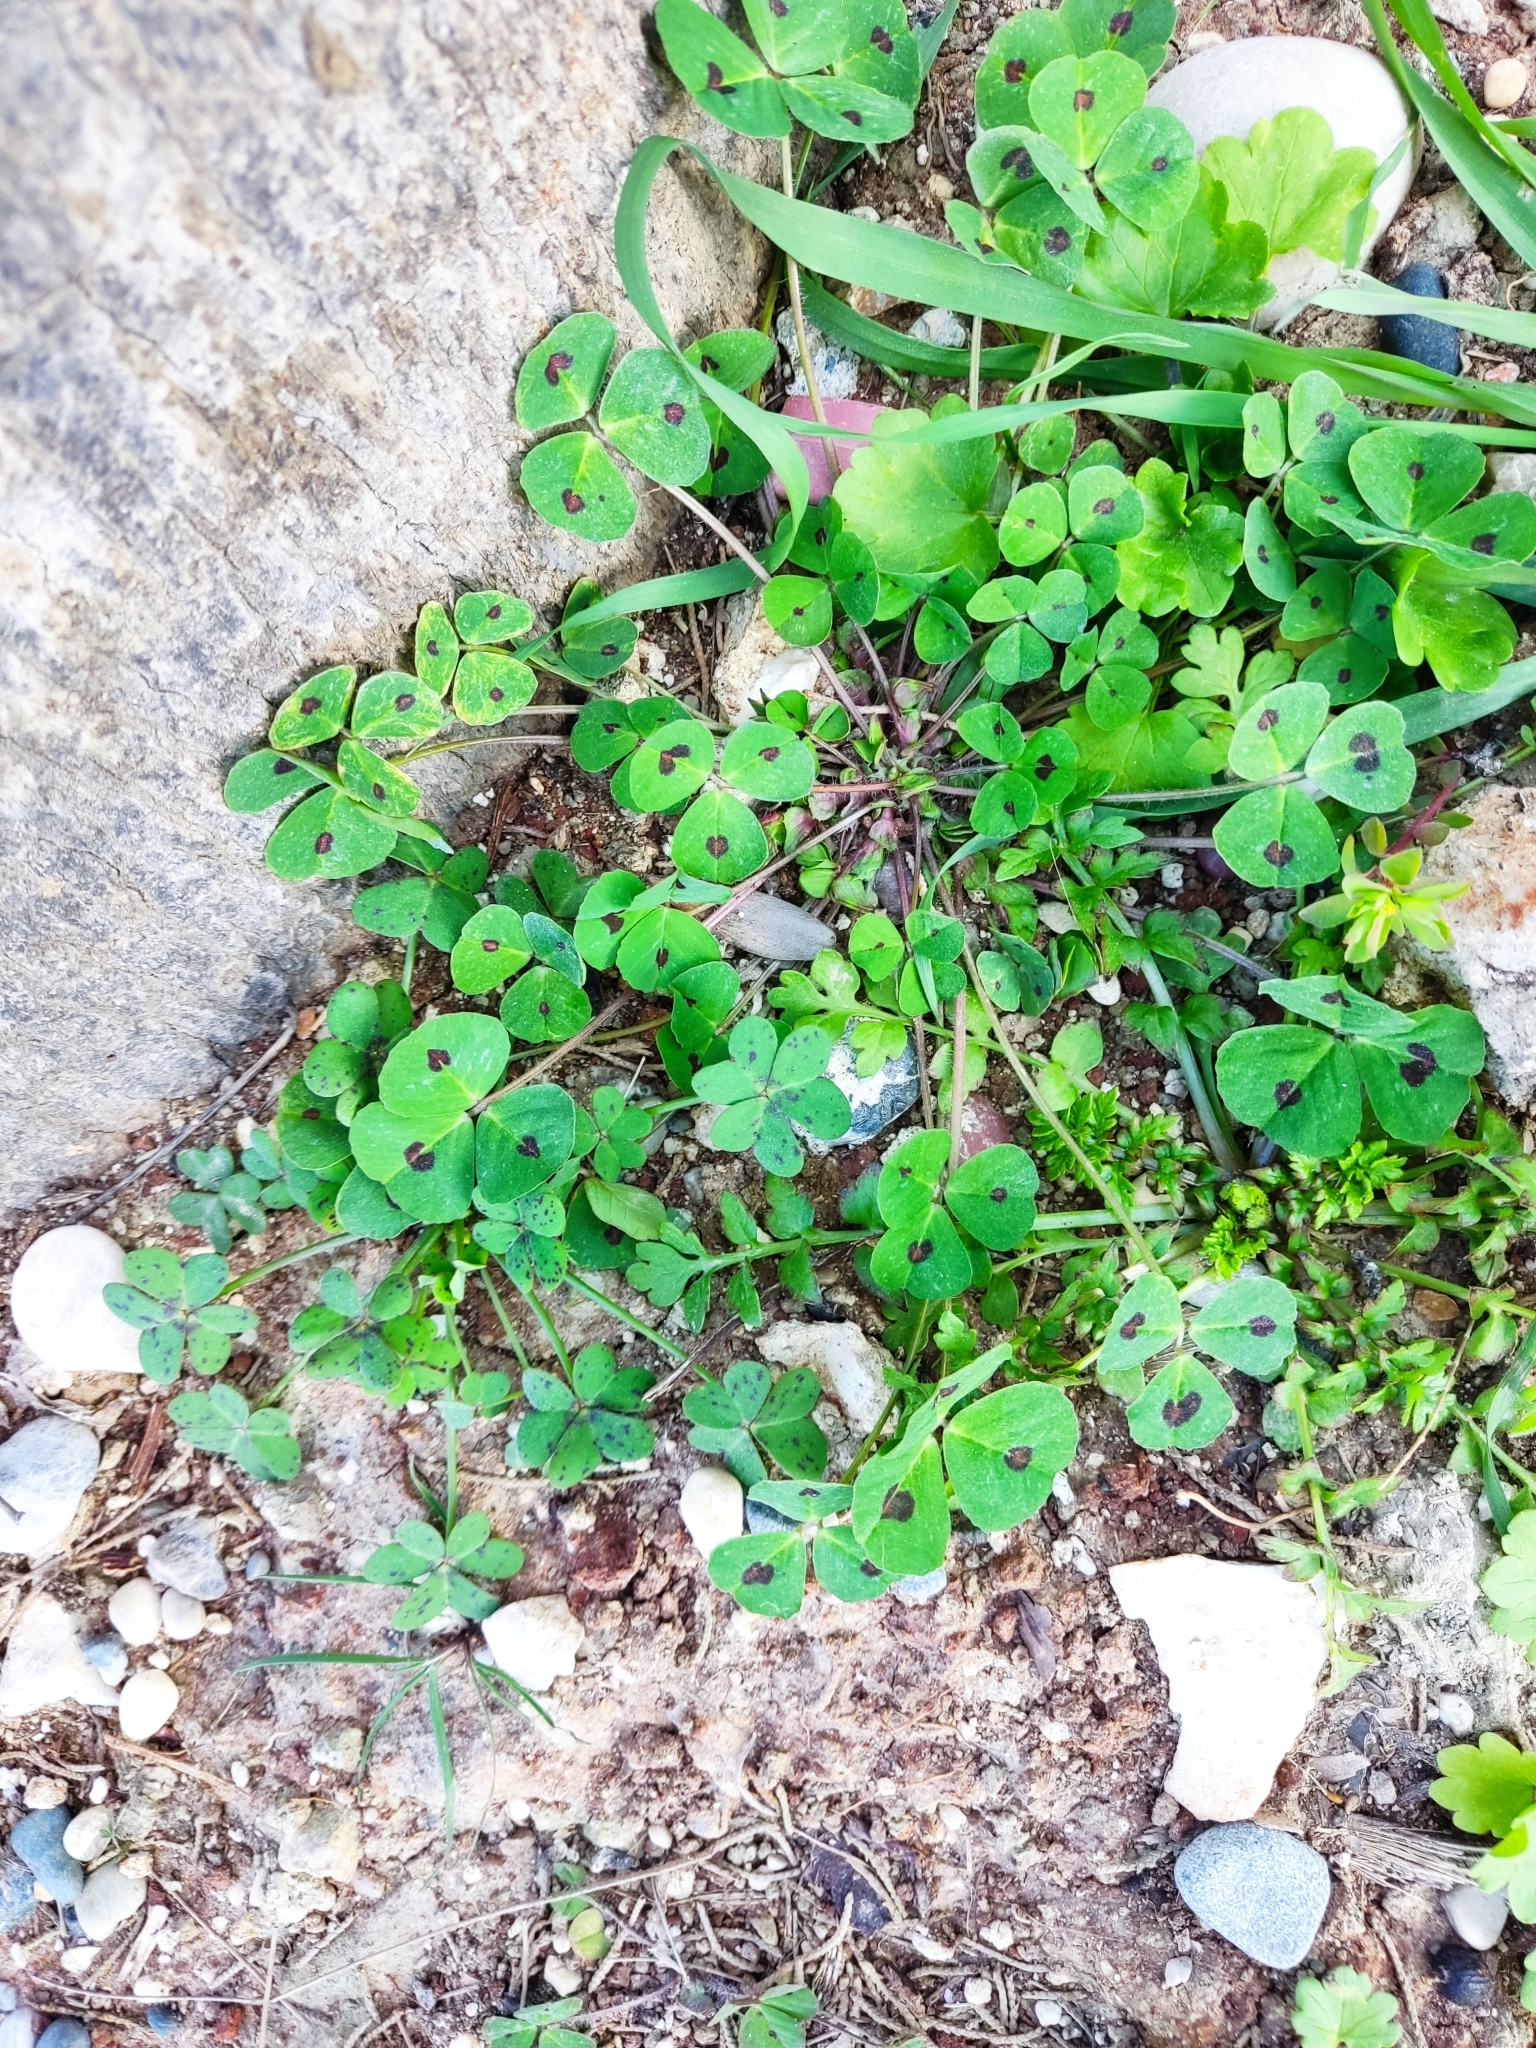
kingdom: Plantae
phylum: Tracheophyta
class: Magnoliopsida
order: Fabales
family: Fabaceae
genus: Medicago
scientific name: Medicago arabica
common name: Spotted medick
